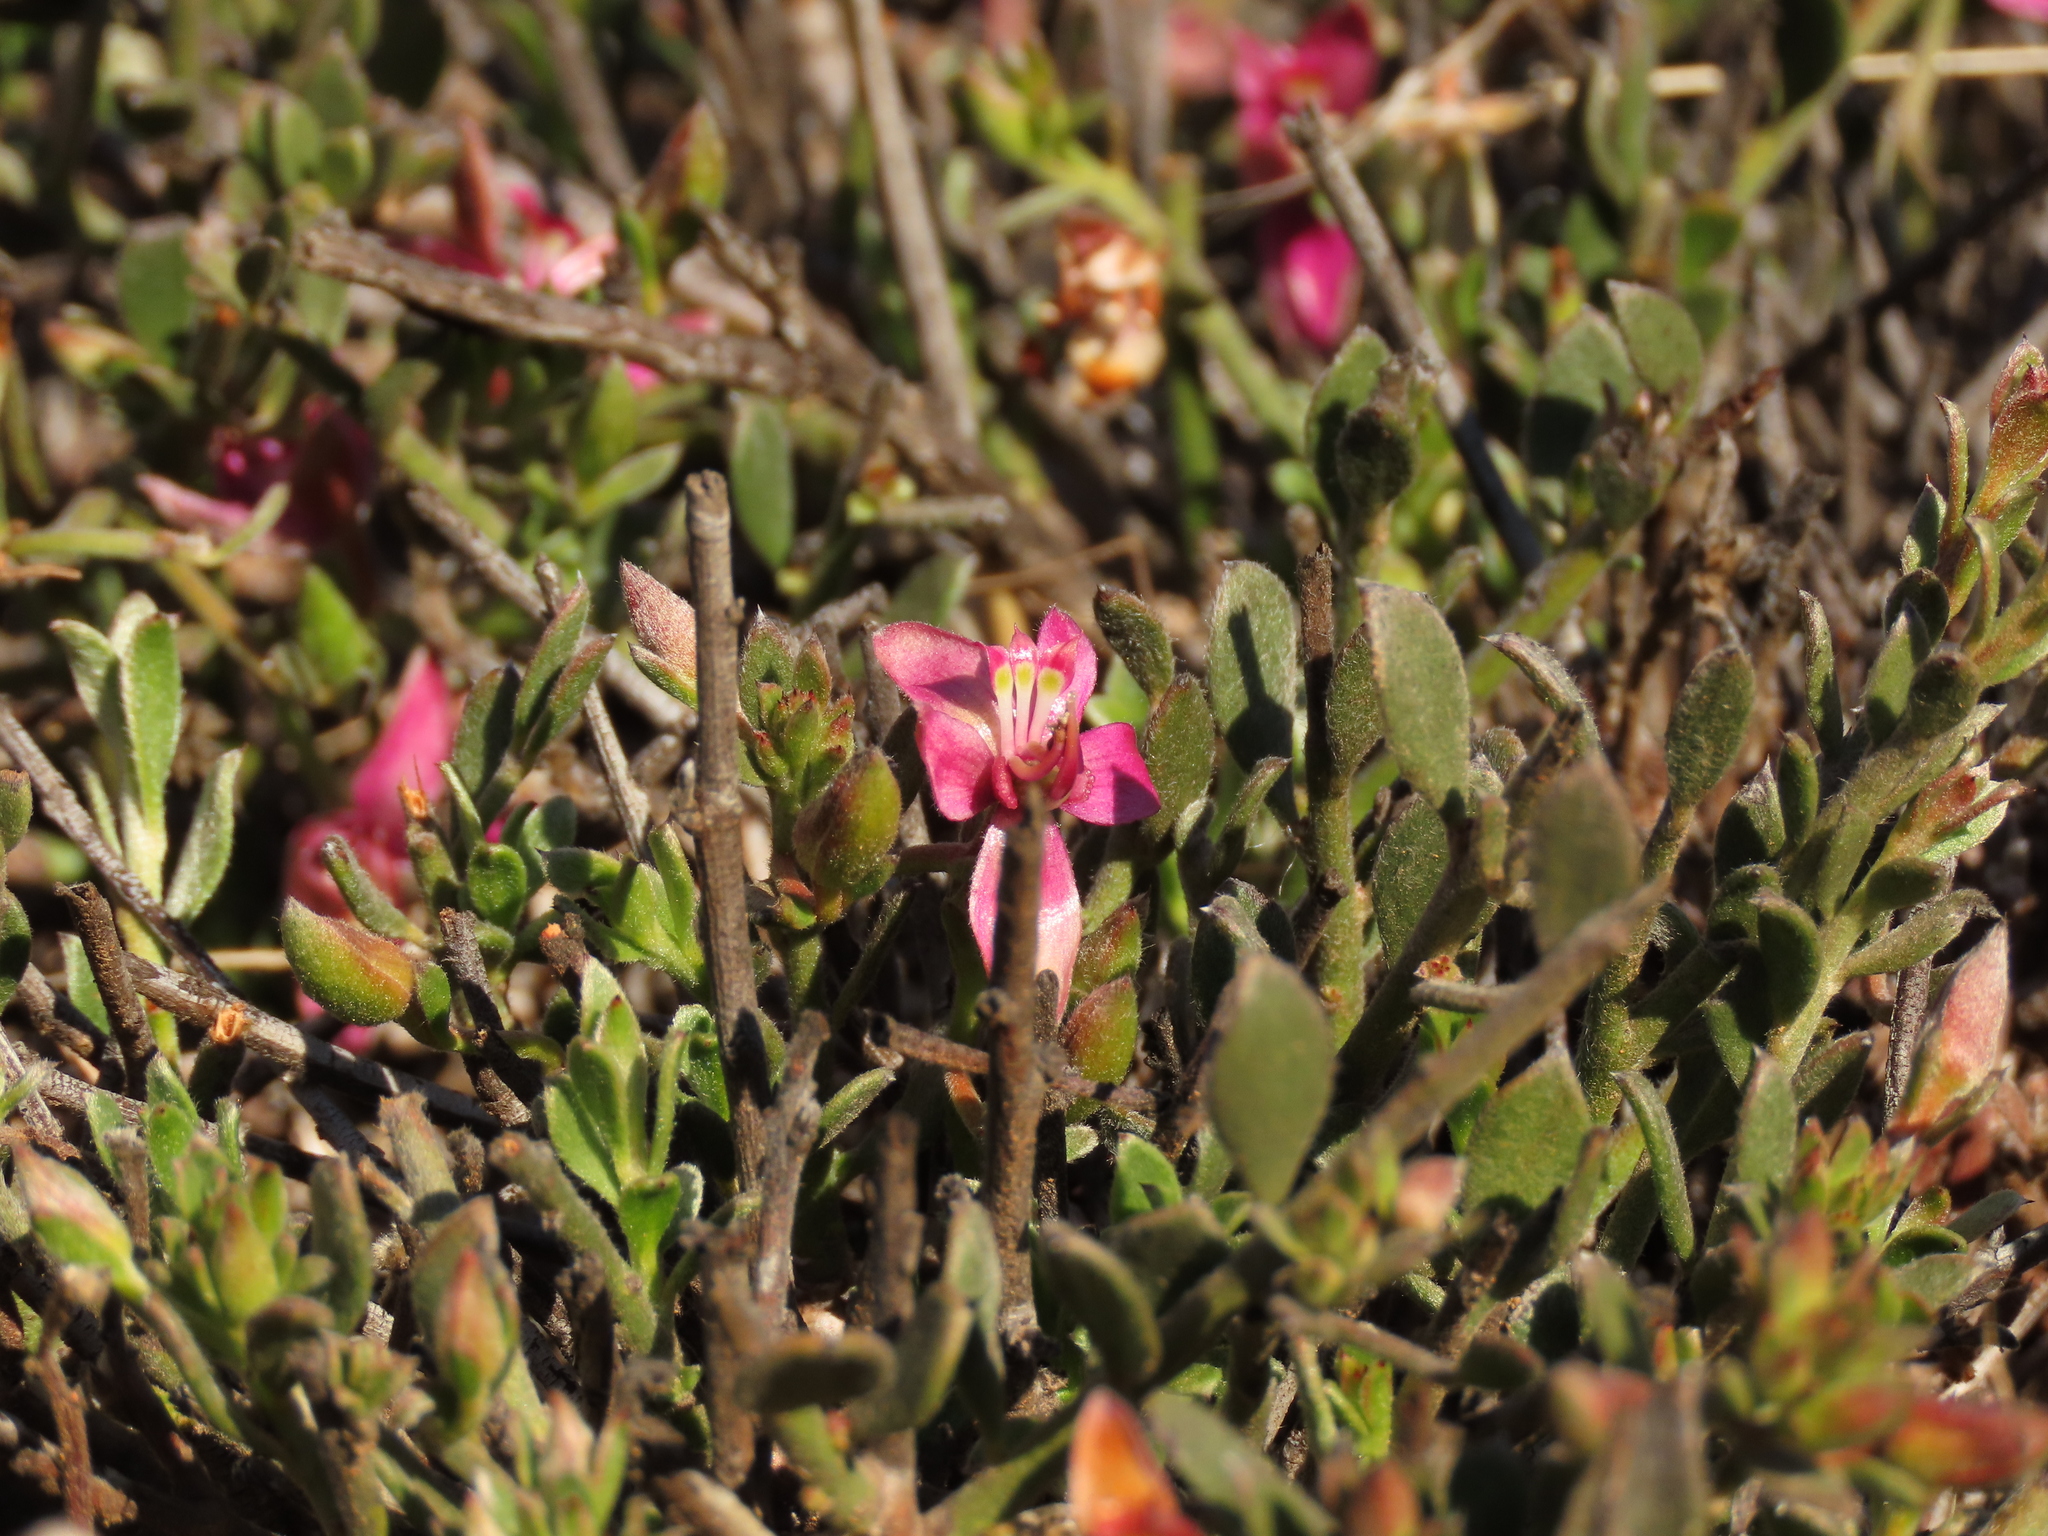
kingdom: Plantae
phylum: Tracheophyta
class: Magnoliopsida
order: Zygophyllales
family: Krameriaceae
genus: Krameria
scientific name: Krameria cistoidea
